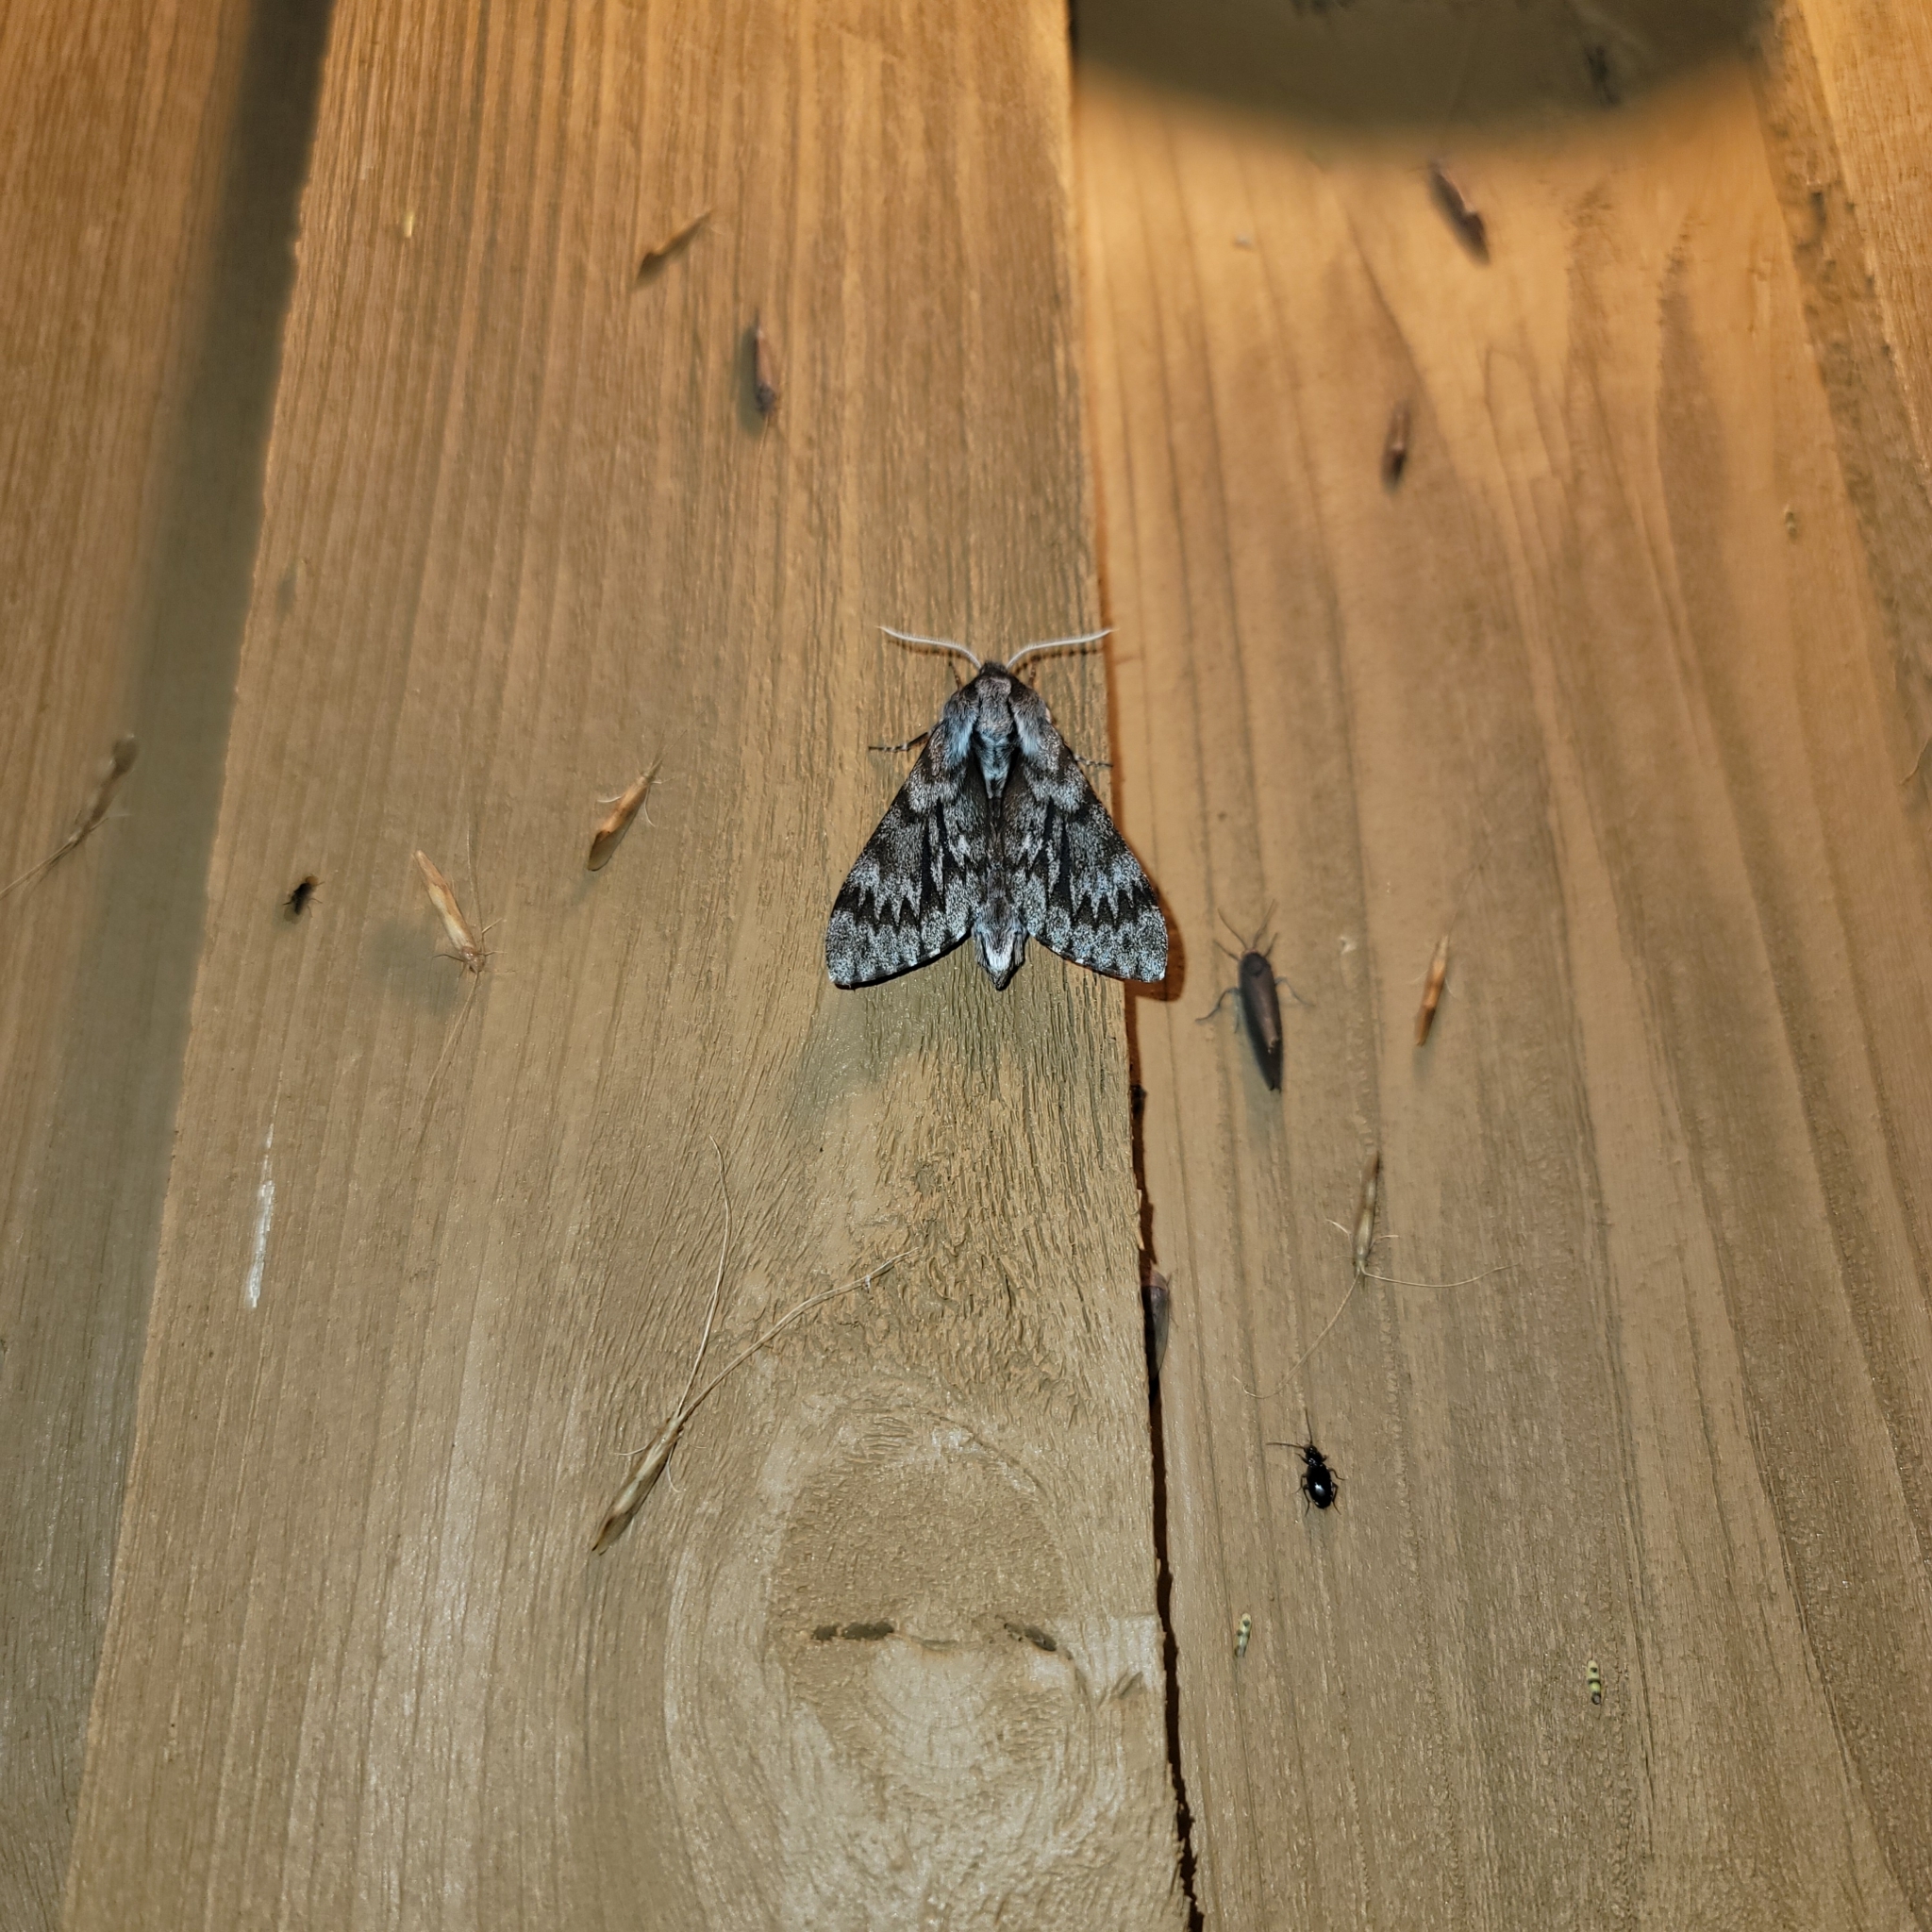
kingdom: Animalia
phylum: Arthropoda
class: Insecta
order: Lepidoptera
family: Sphingidae
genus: Lapara
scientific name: Lapara bombycoides
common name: Northern pine sphinx
